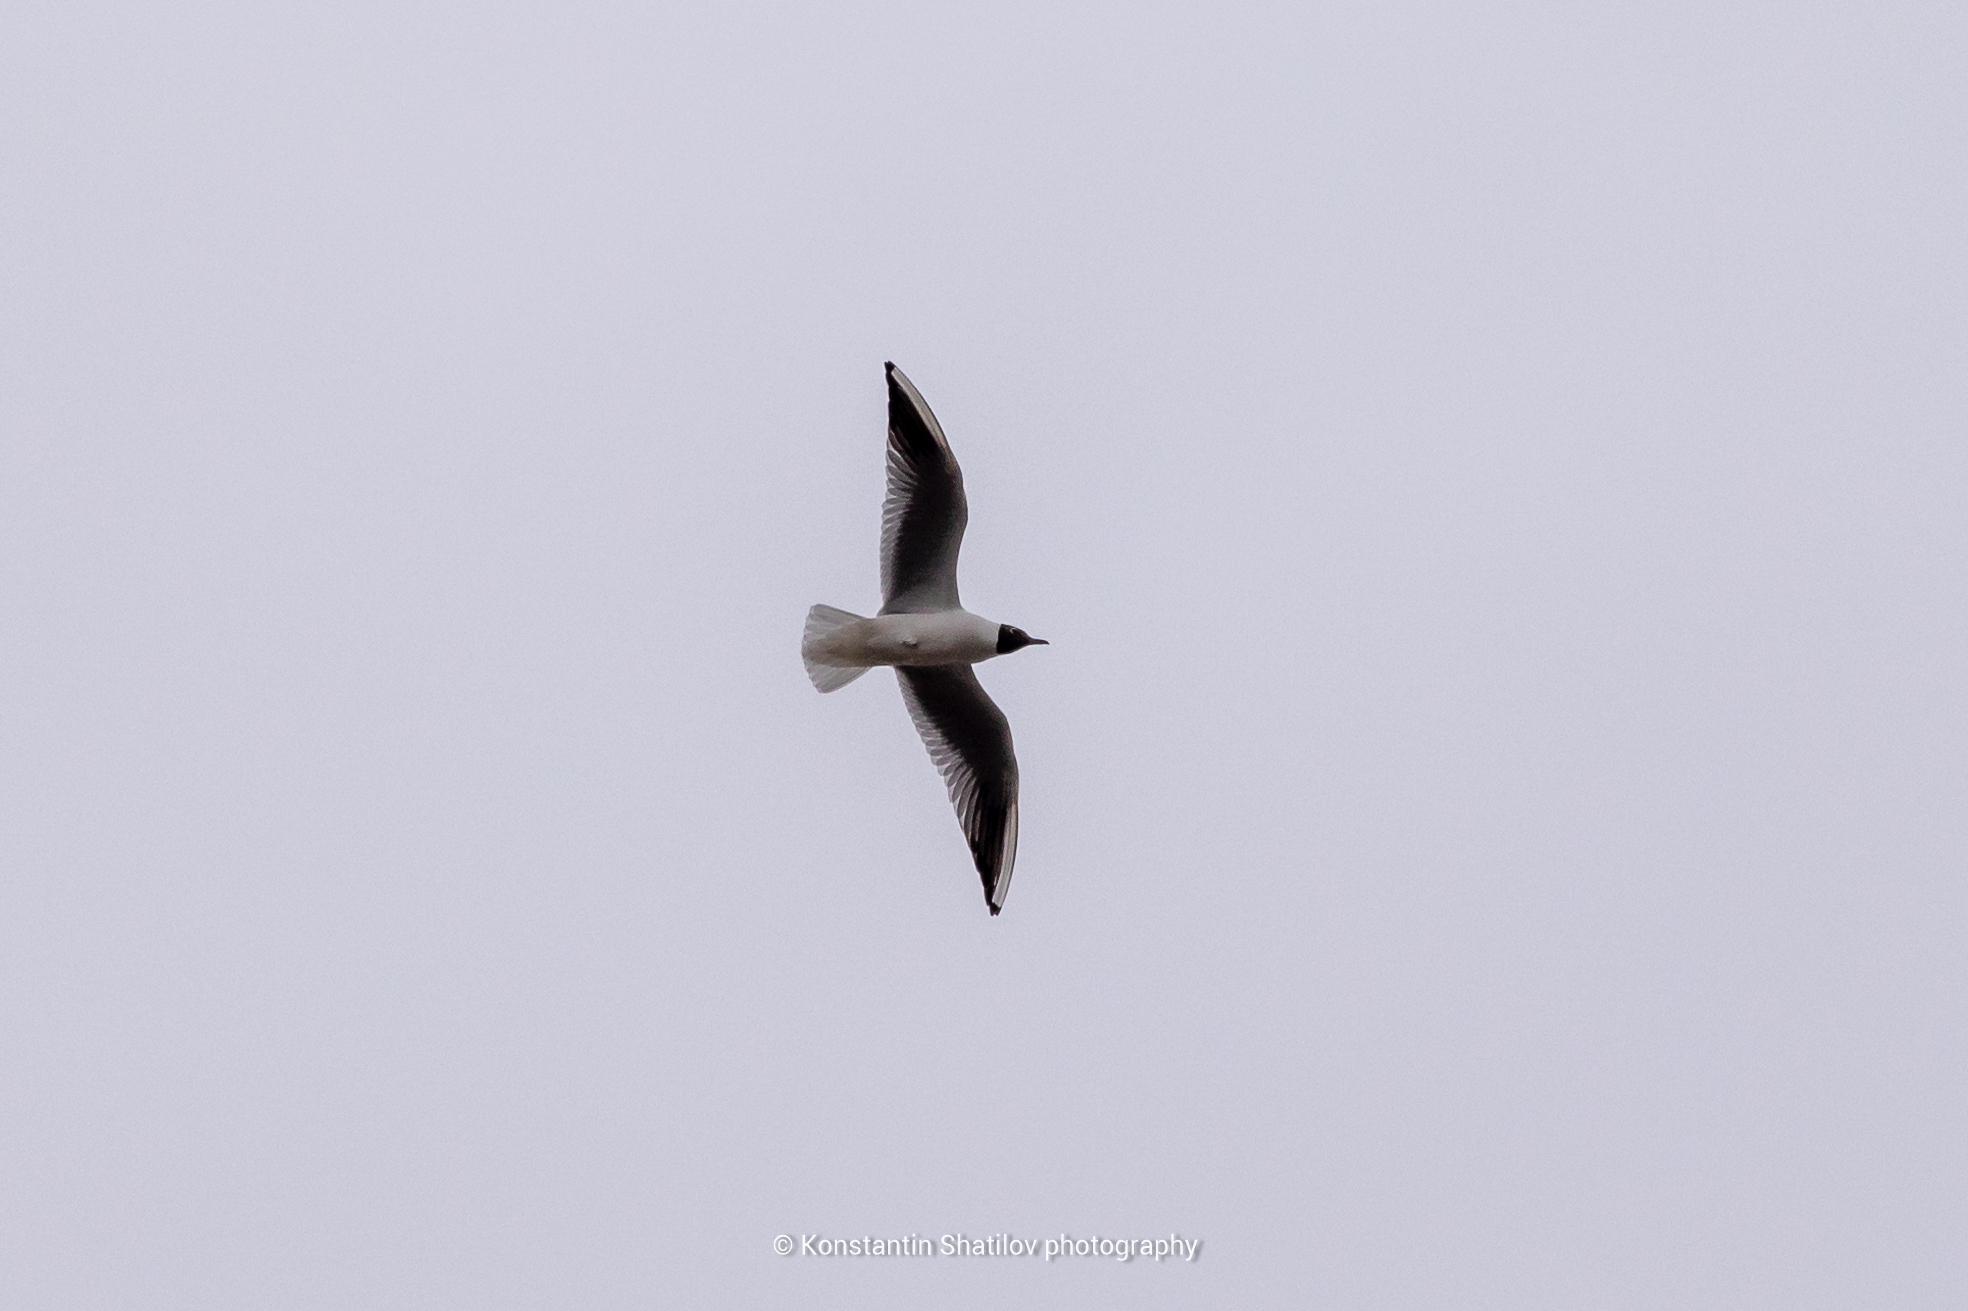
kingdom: Animalia
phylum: Chordata
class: Aves
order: Charadriiformes
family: Laridae
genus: Chroicocephalus
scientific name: Chroicocephalus ridibundus
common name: Black-headed gull
